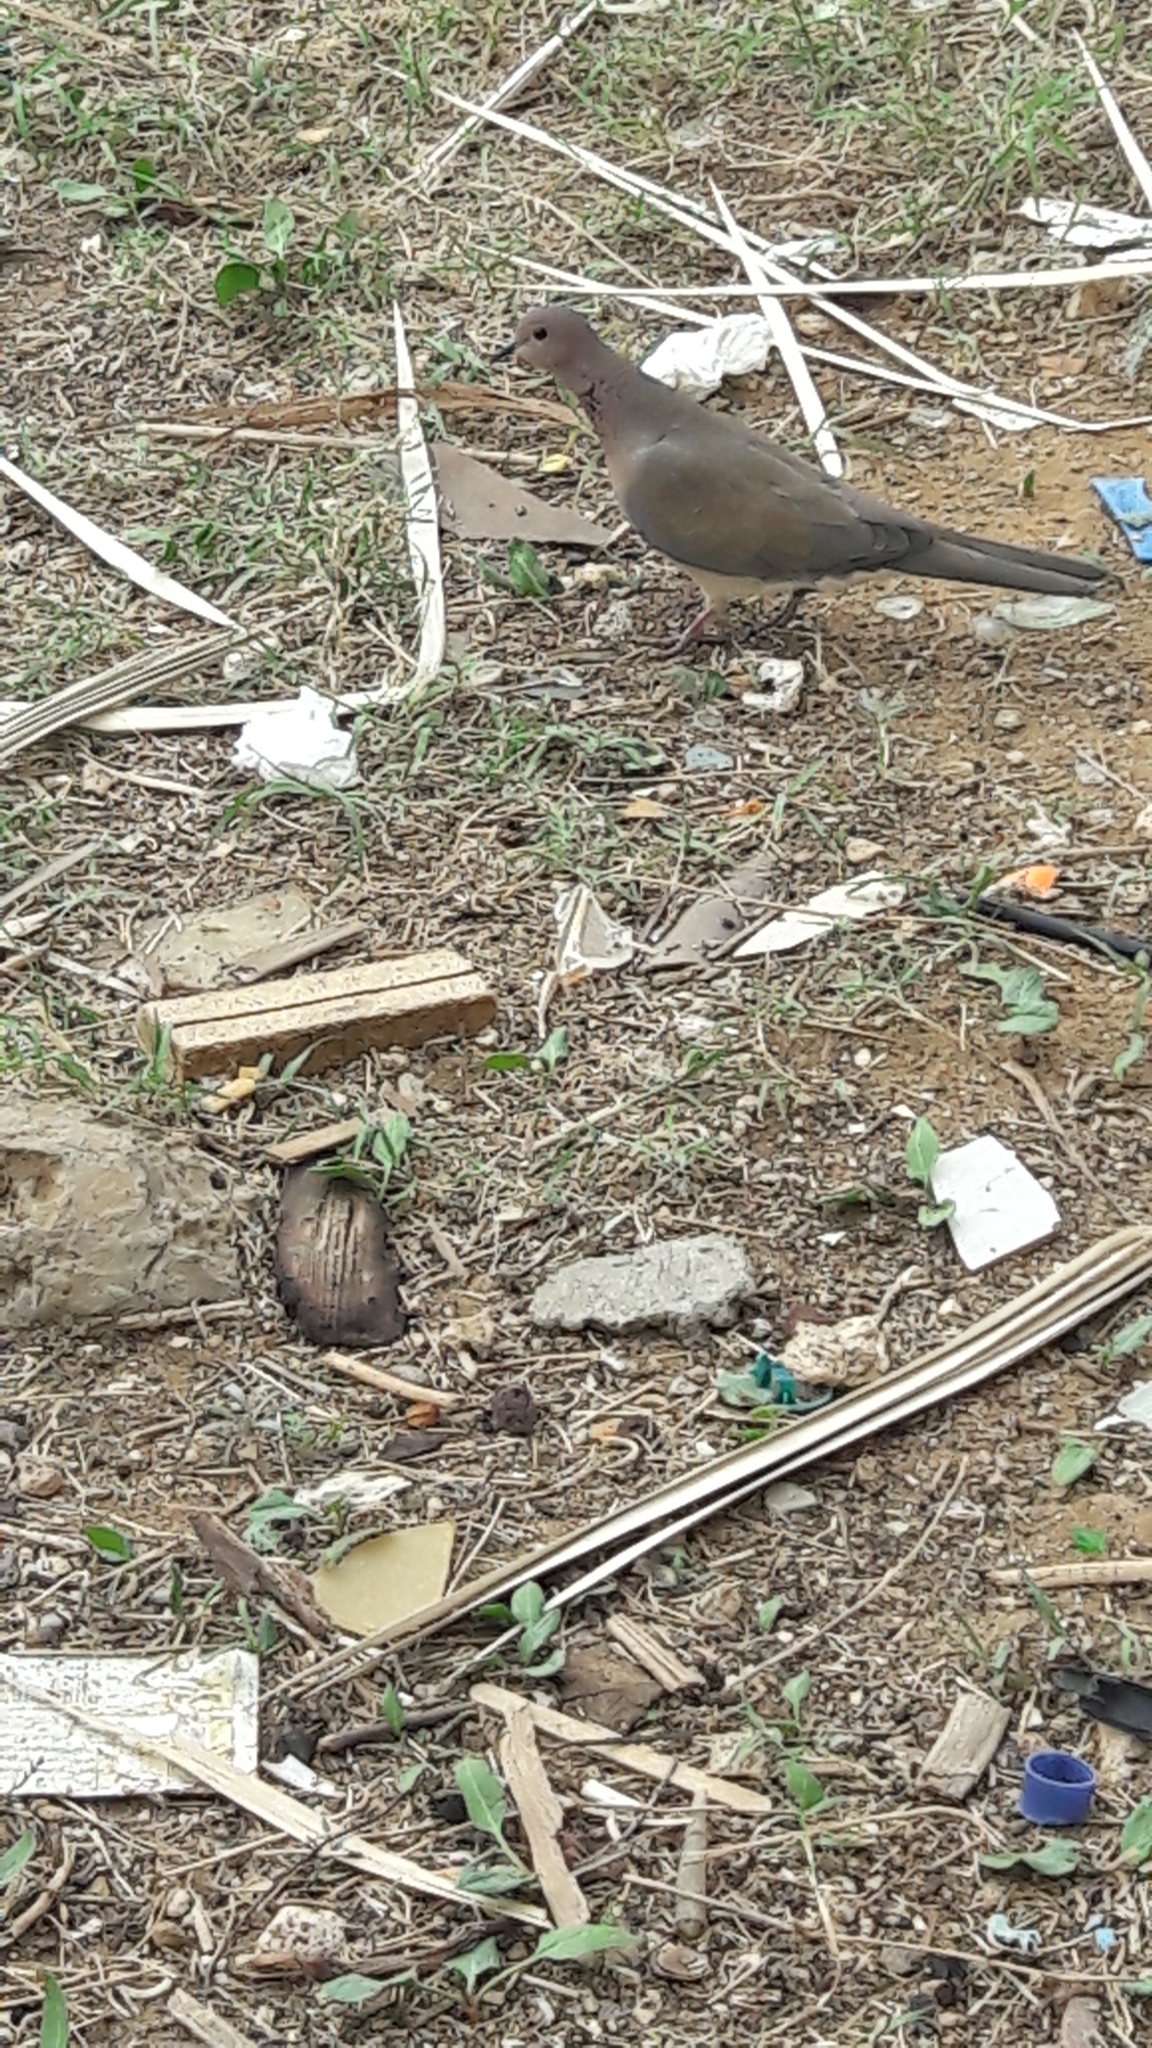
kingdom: Animalia
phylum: Chordata
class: Aves
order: Columbiformes
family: Columbidae
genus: Spilopelia
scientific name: Spilopelia senegalensis
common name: Laughing dove
